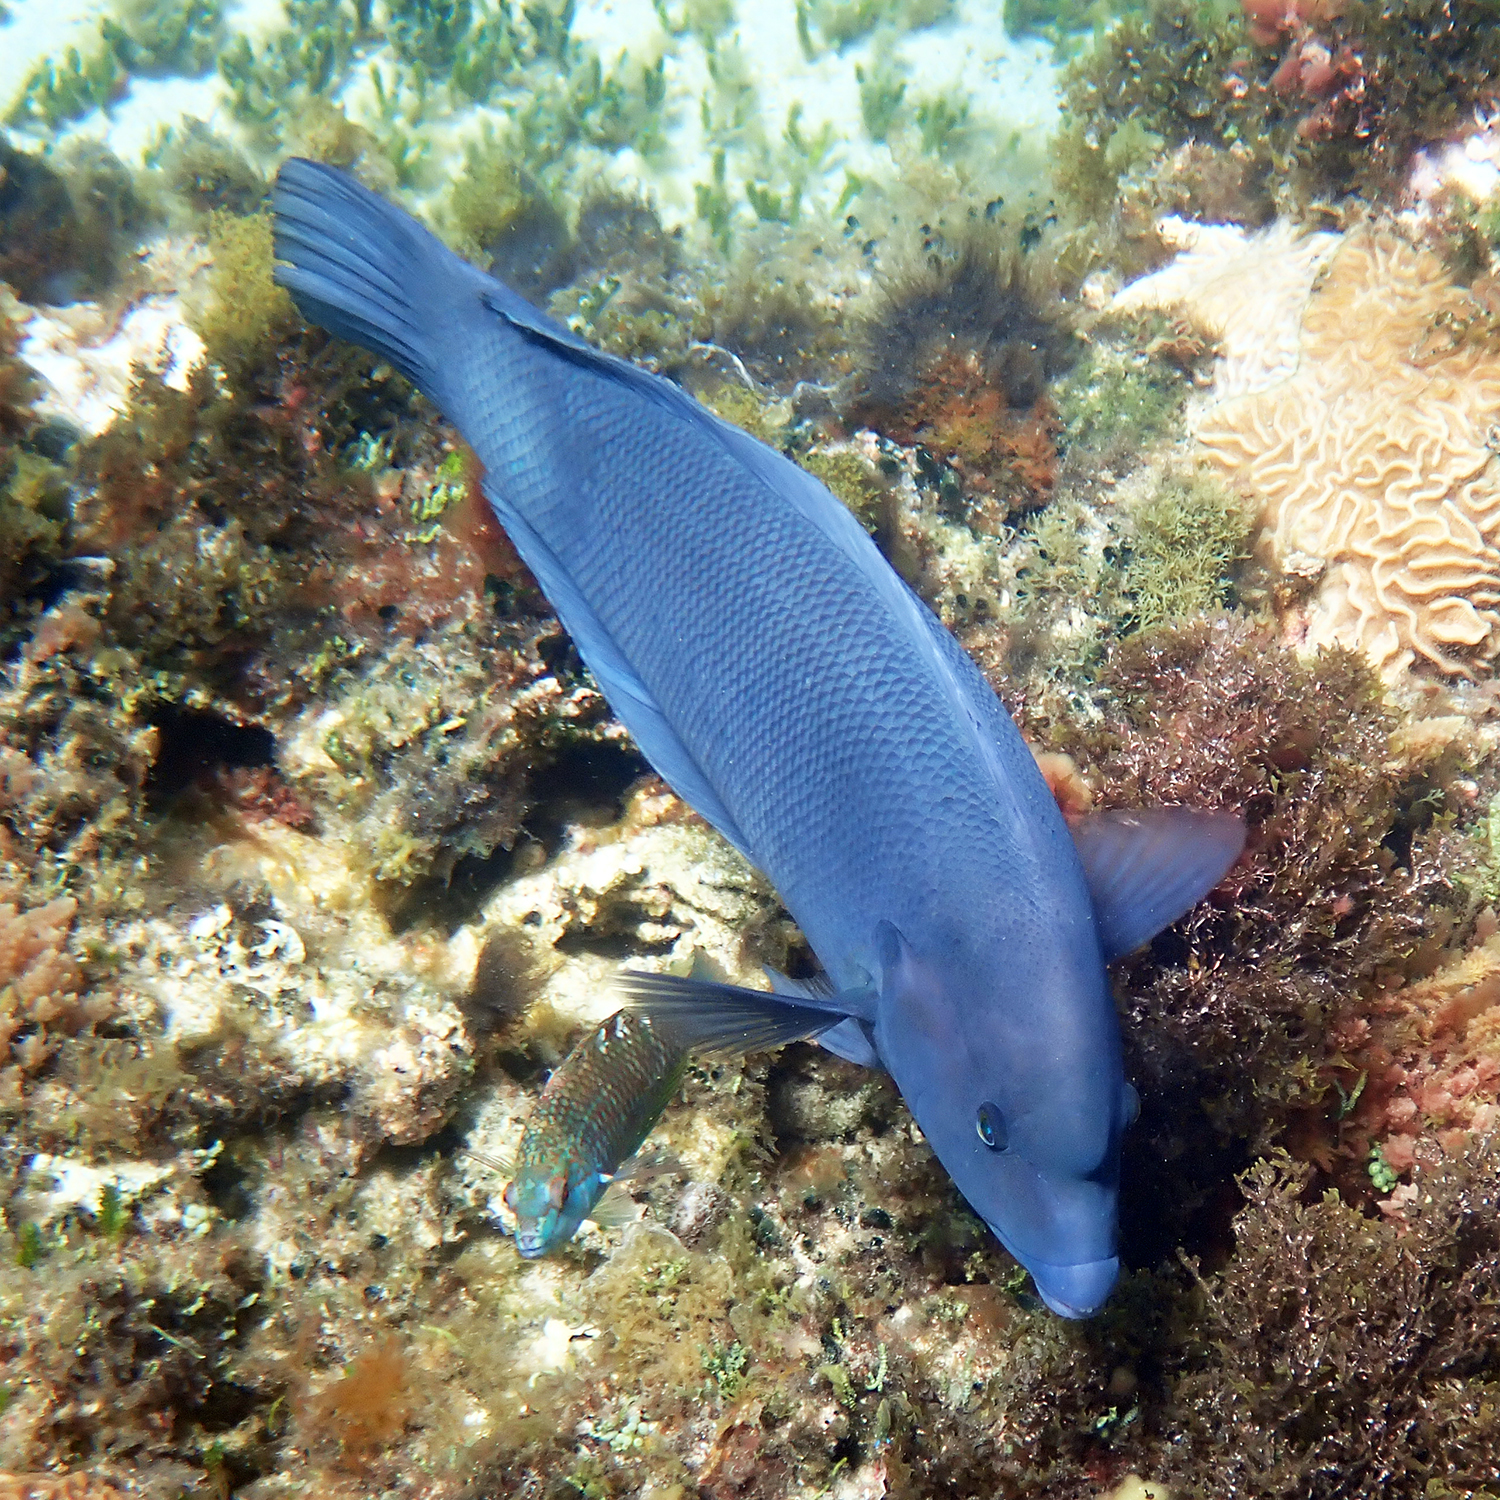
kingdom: Animalia
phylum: Chordata
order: Perciformes
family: Labridae
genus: Coris
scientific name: Coris bulbifrons
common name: Doubleheader
